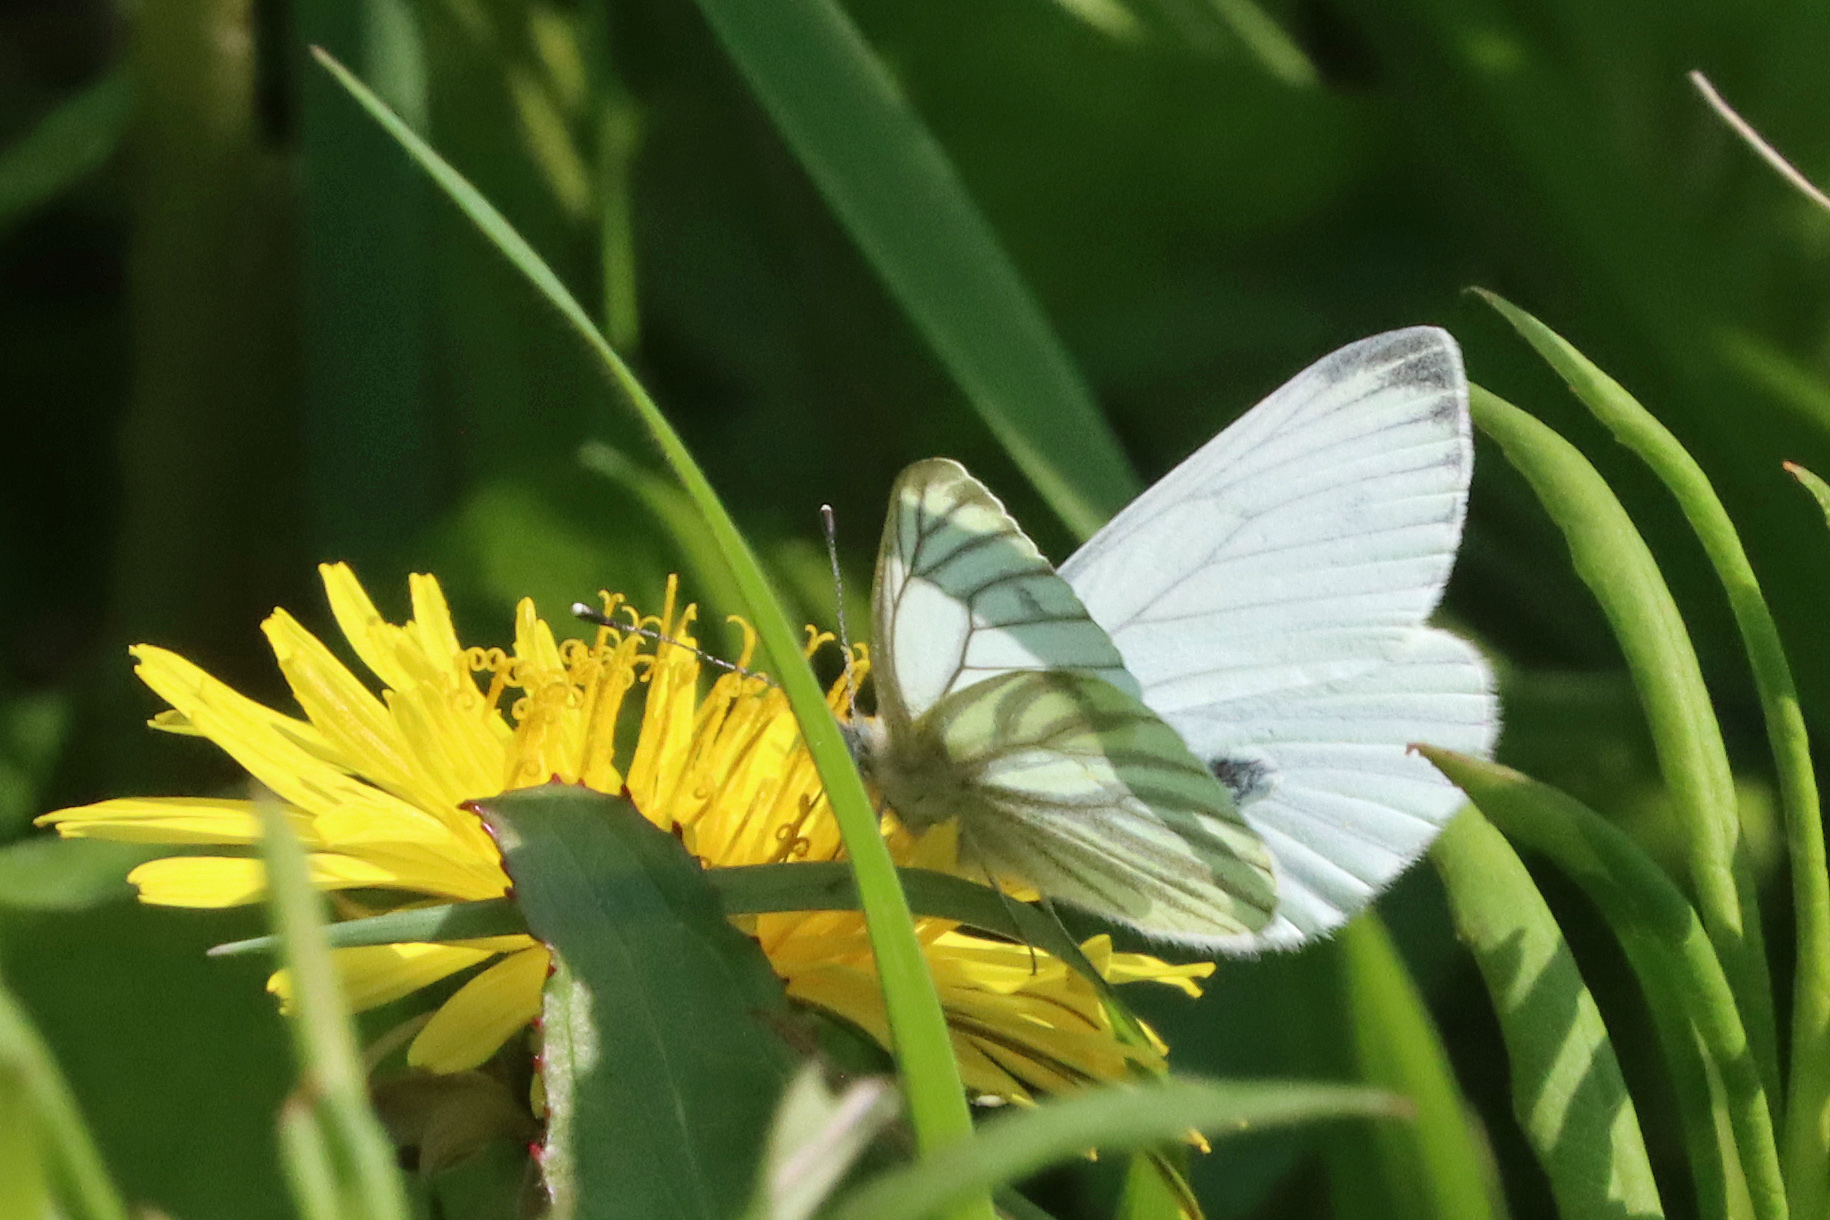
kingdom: Animalia
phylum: Arthropoda
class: Insecta
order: Lepidoptera
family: Pieridae
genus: Pieris
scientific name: Pieris napi
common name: Green-veined white
